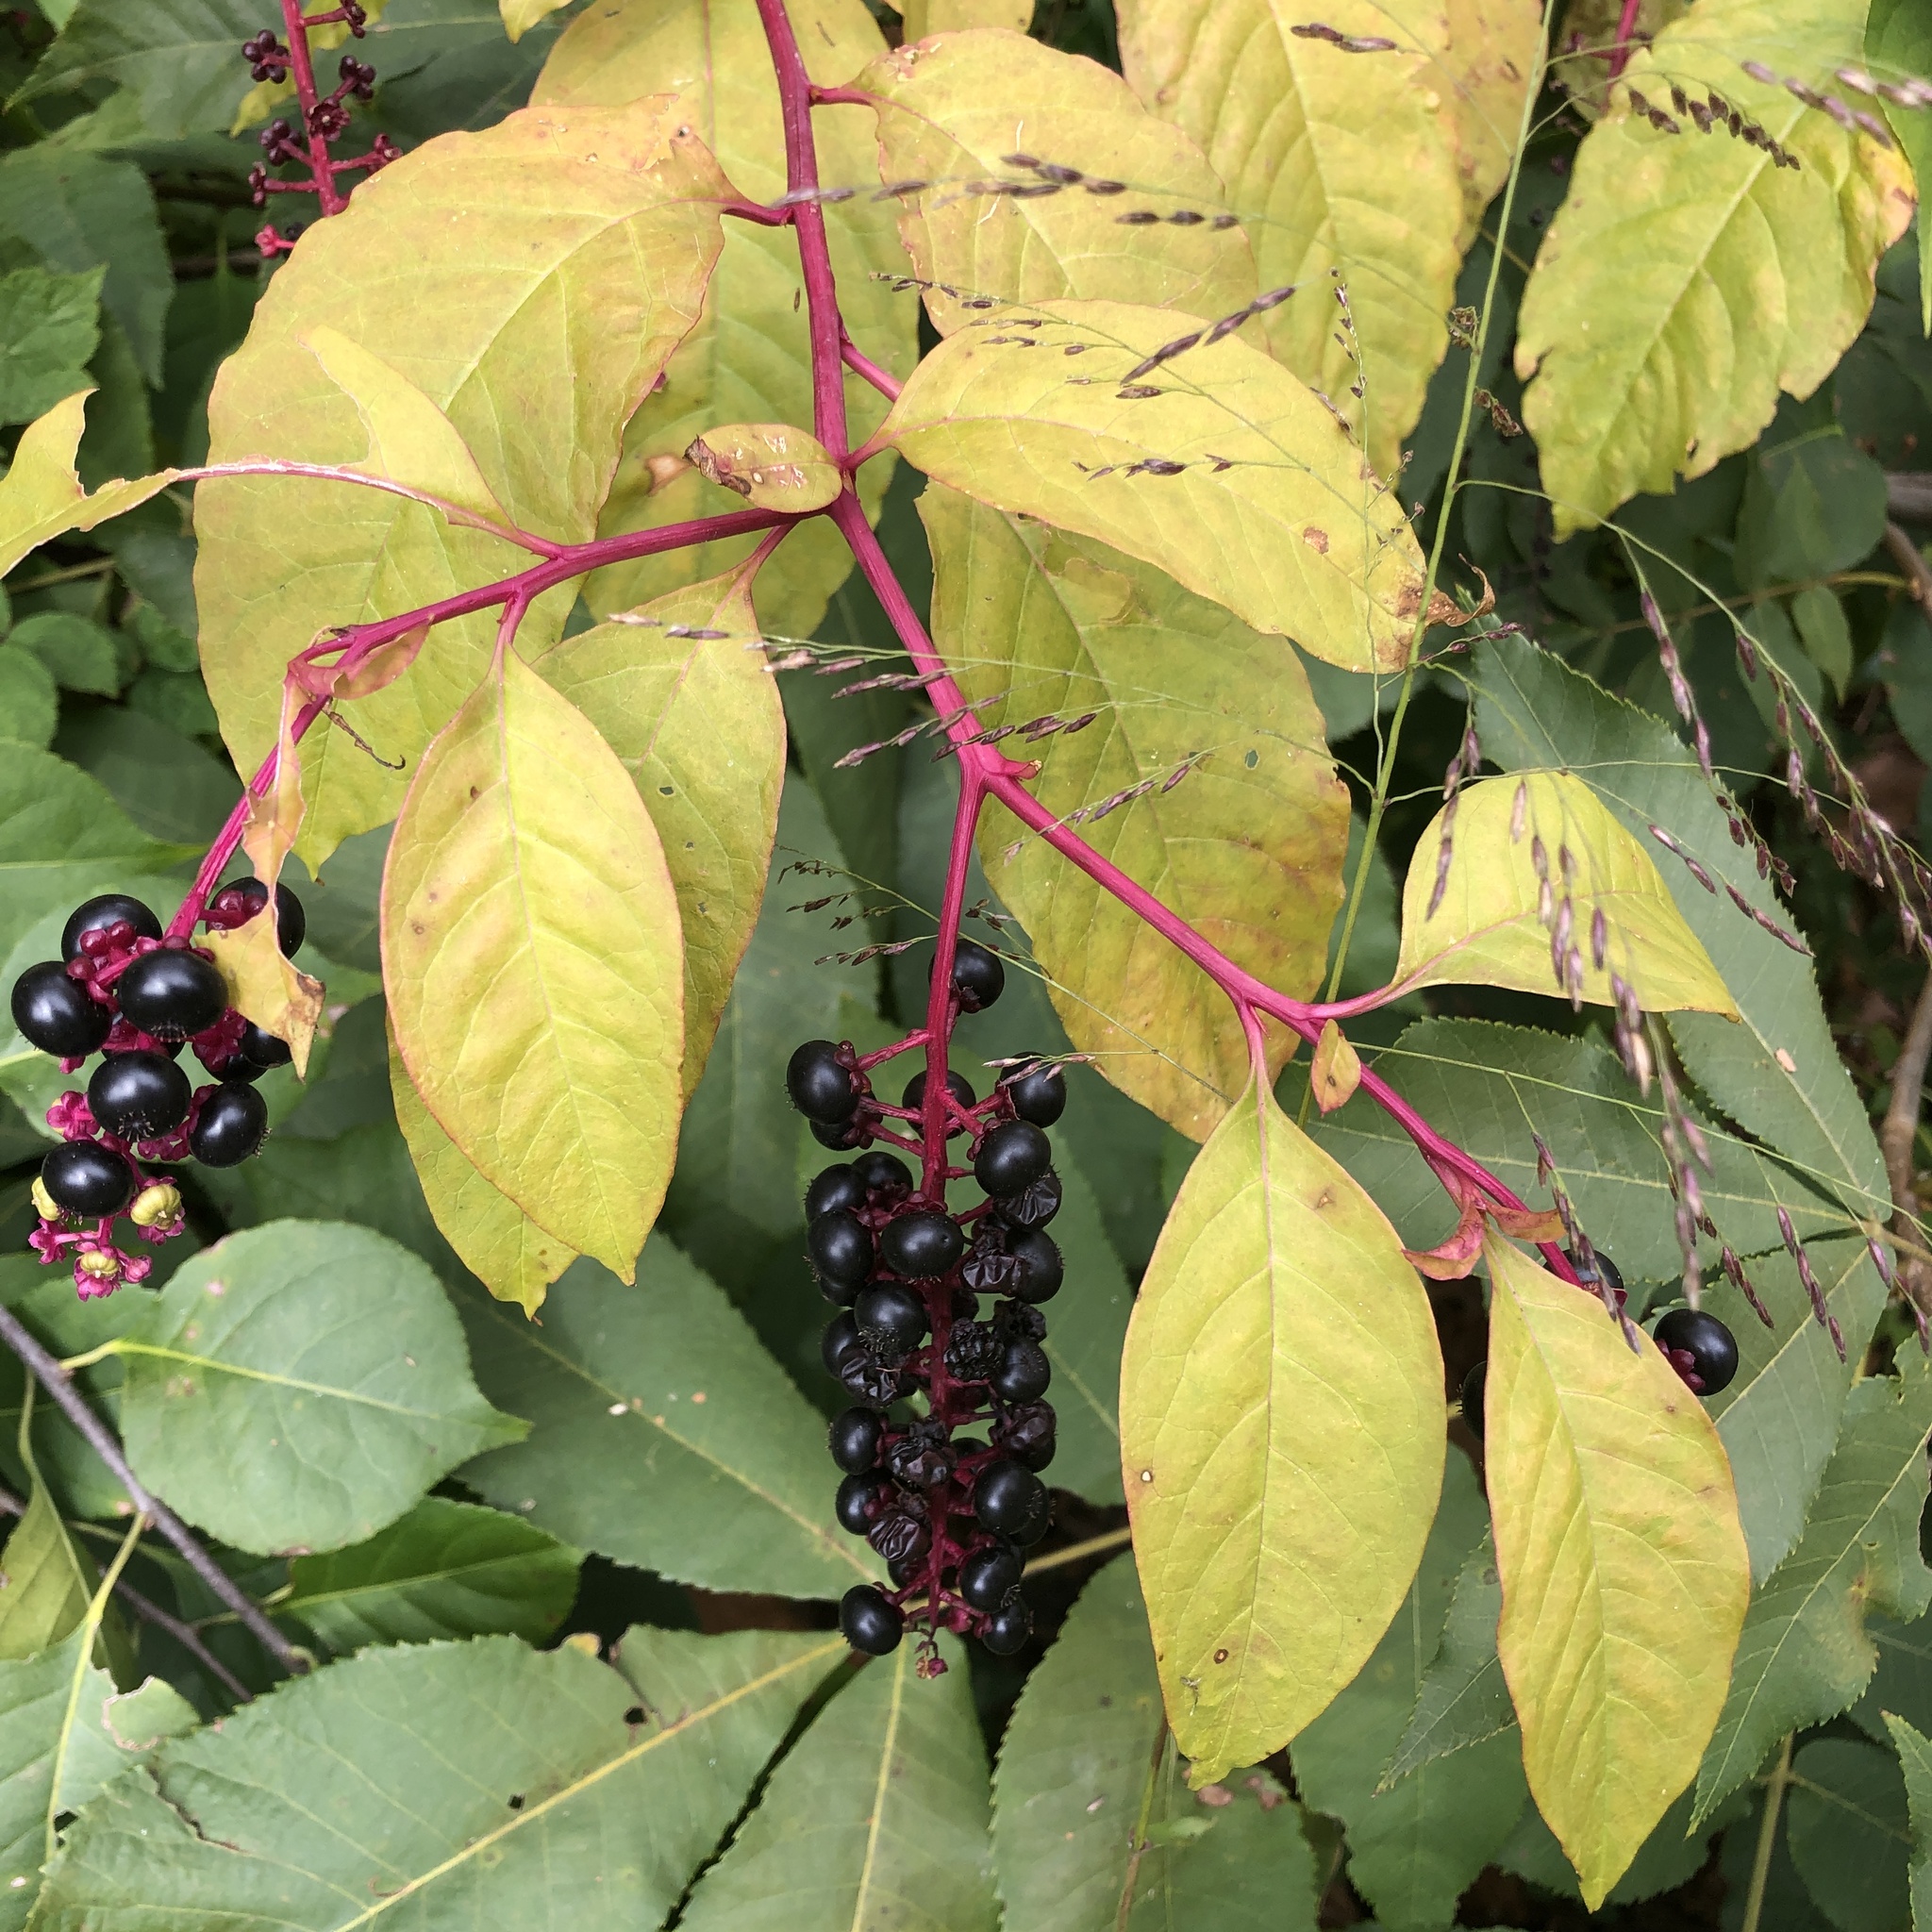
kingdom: Plantae
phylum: Tracheophyta
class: Magnoliopsida
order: Caryophyllales
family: Phytolaccaceae
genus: Phytolacca
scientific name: Phytolacca americana
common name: American pokeweed
